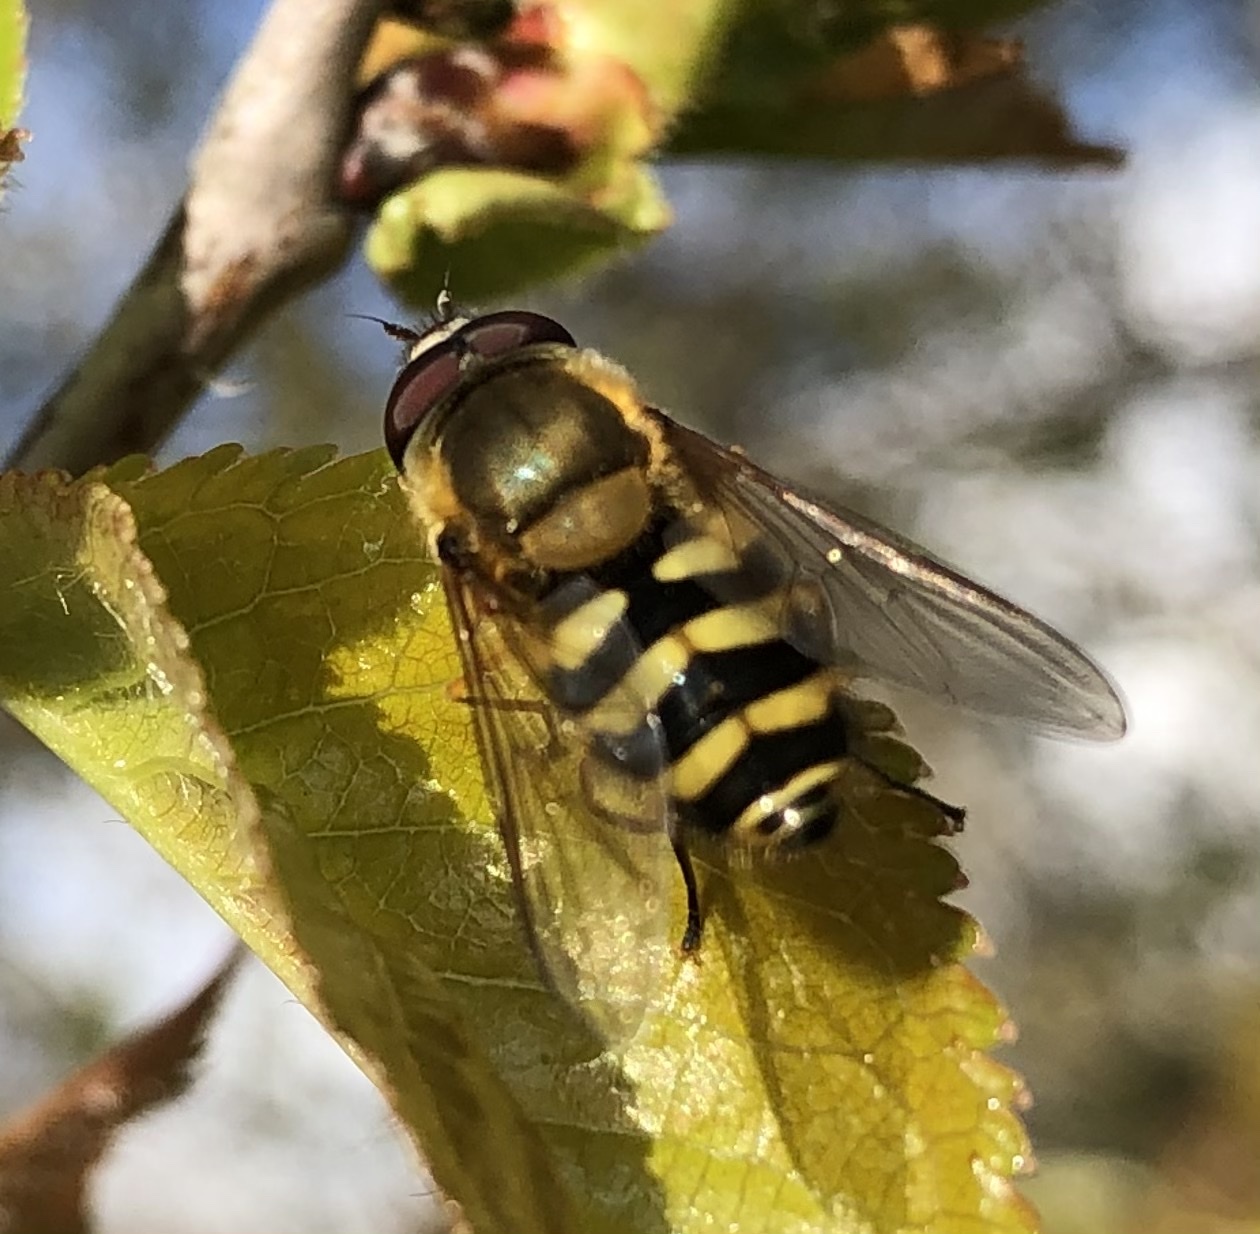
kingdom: Animalia
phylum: Arthropoda
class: Insecta
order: Diptera
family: Syrphidae
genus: Syrphus
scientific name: Syrphus
